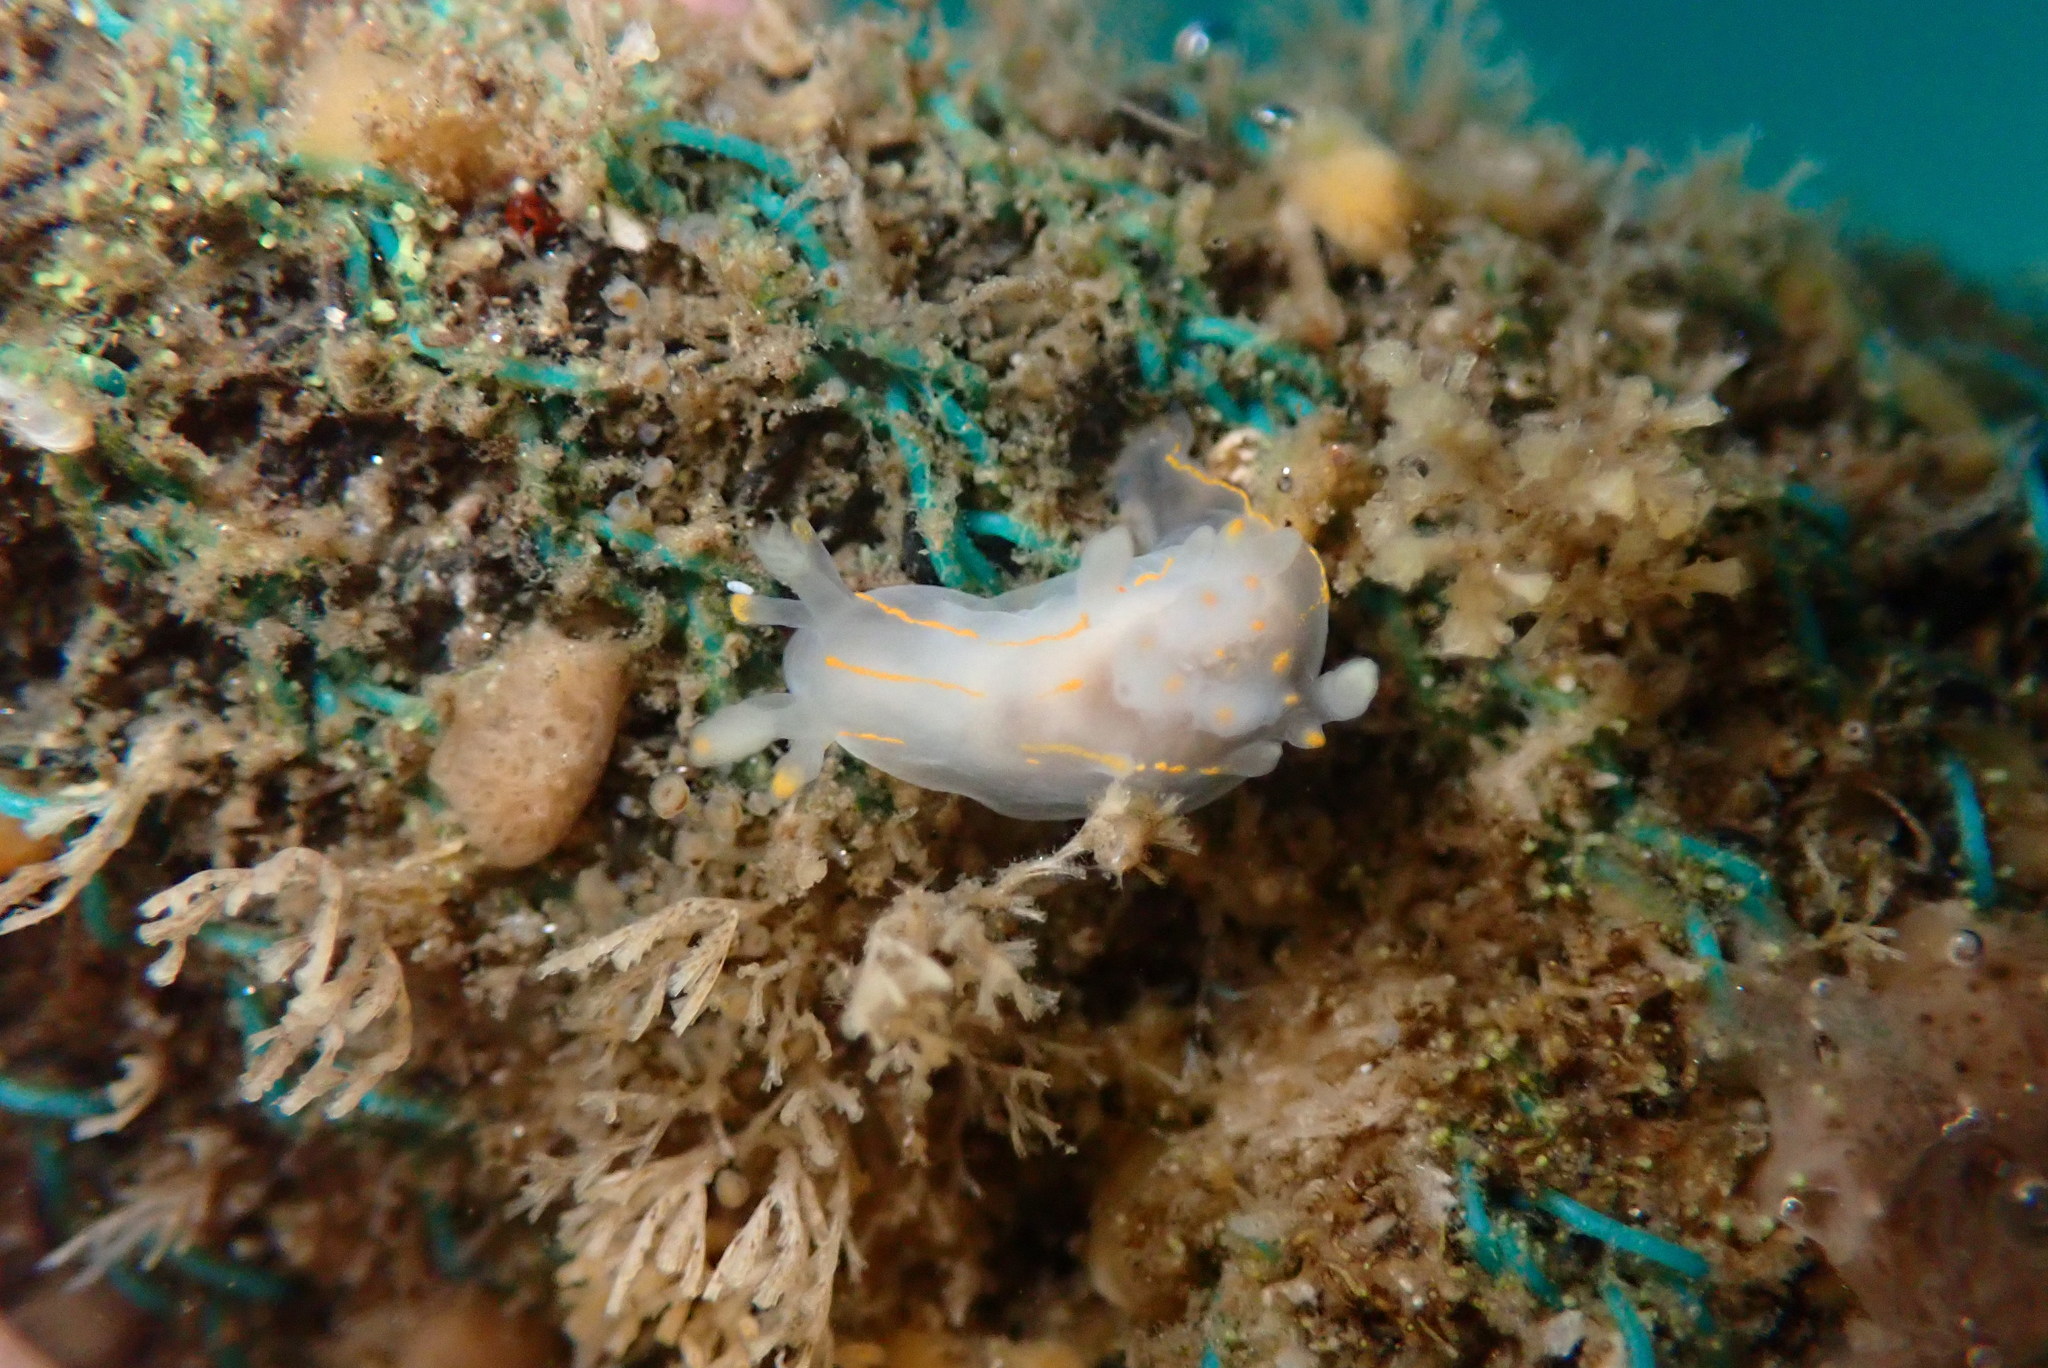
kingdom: Animalia
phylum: Mollusca
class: Gastropoda
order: Nudibranchia
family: Goniodorididae
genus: Ancula
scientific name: Ancula pacifica
